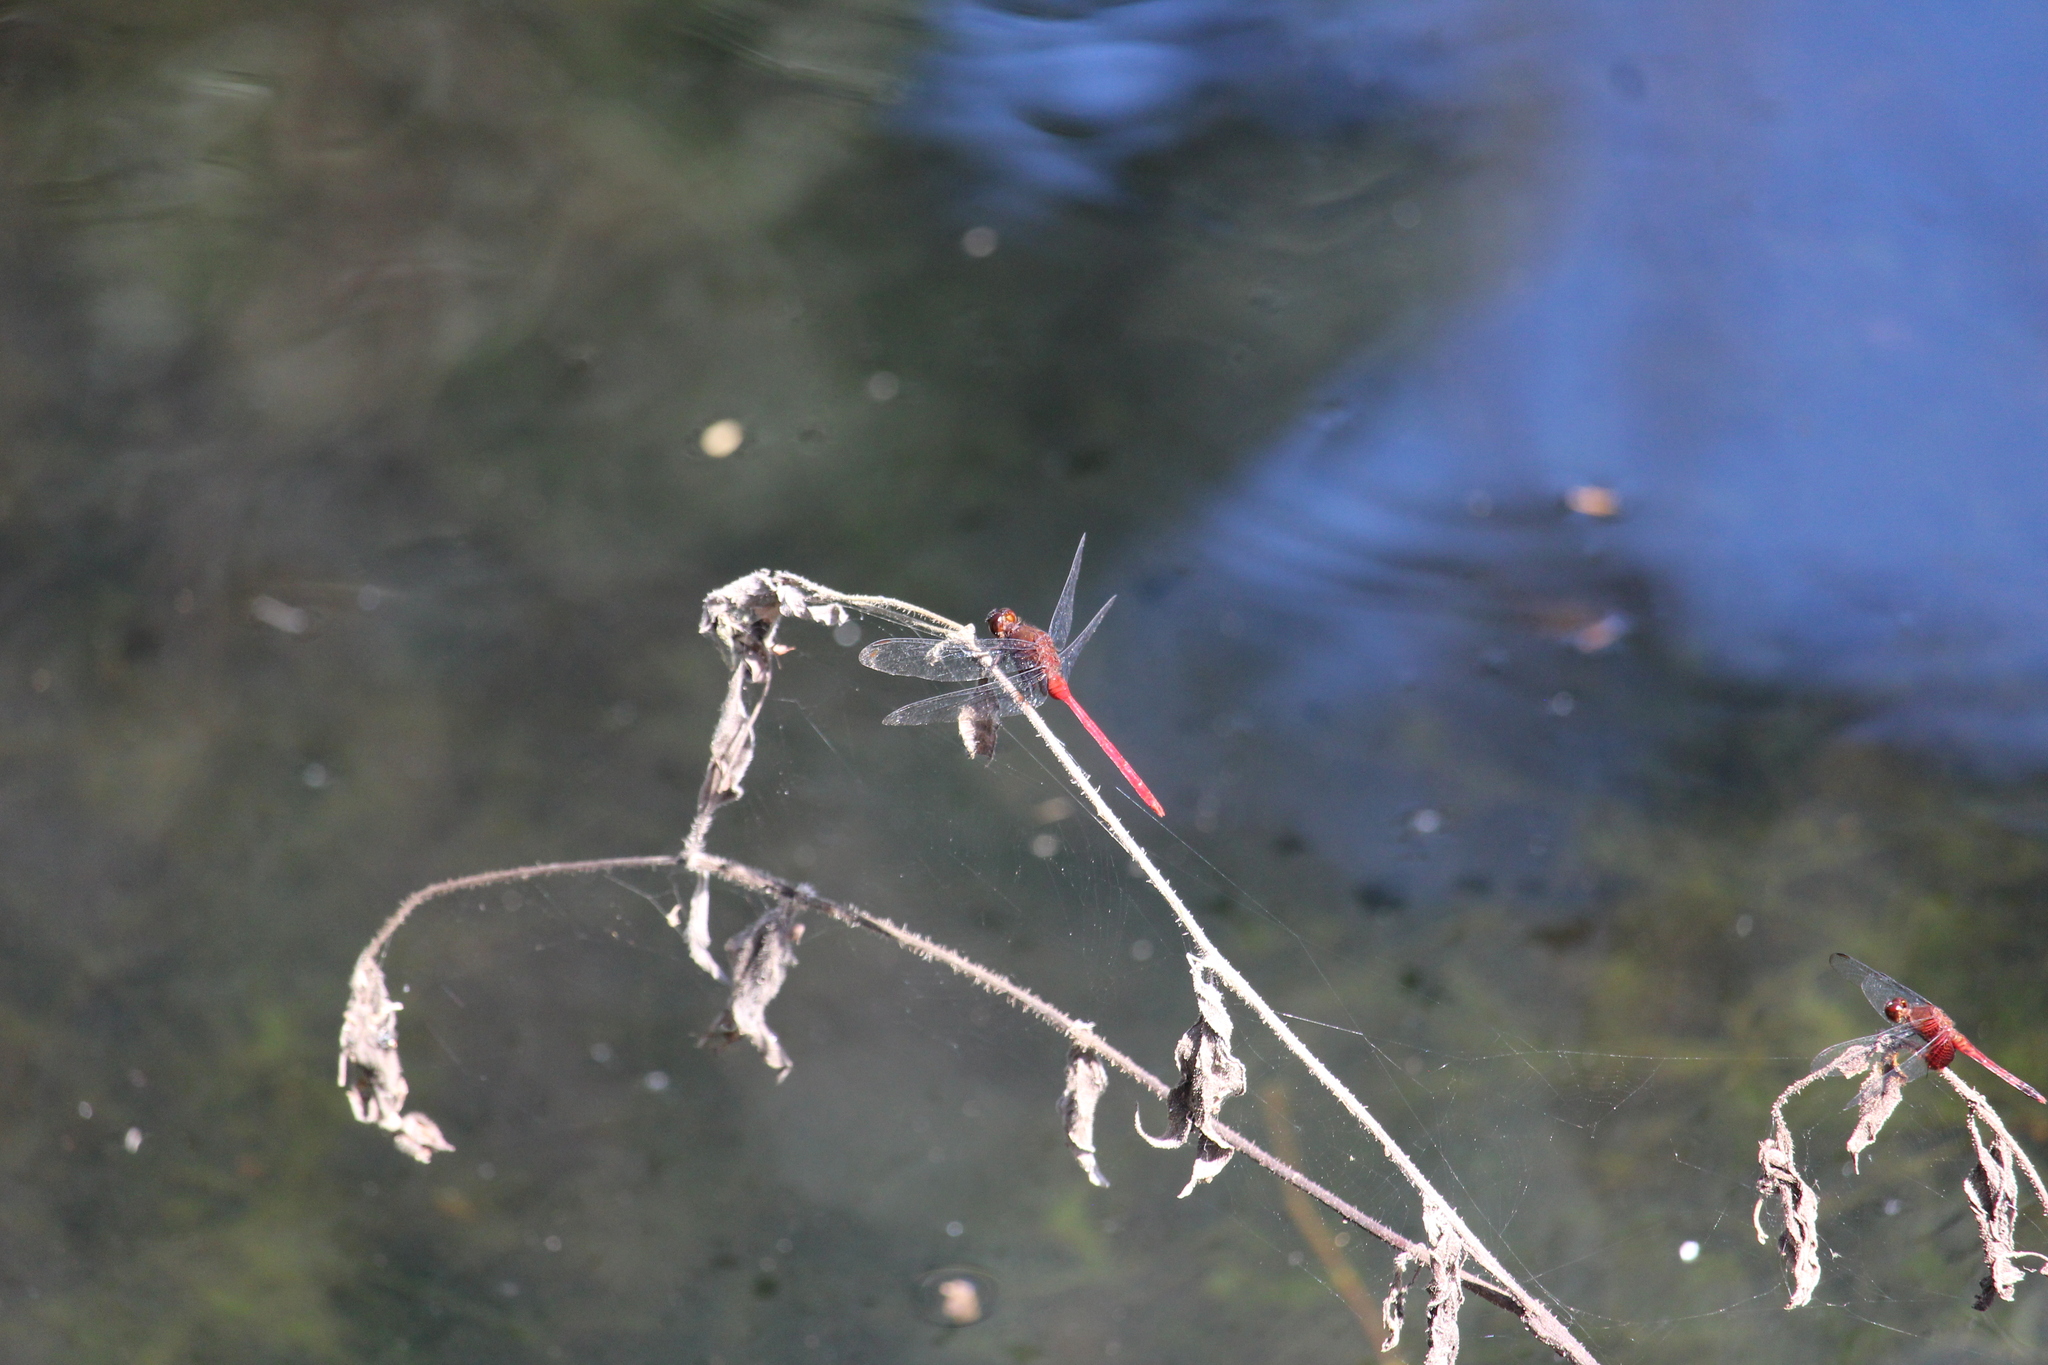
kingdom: Animalia
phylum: Arthropoda
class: Insecta
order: Odonata
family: Libellulidae
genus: Erythemis
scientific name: Erythemis haematogastra
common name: Red pondhawk
